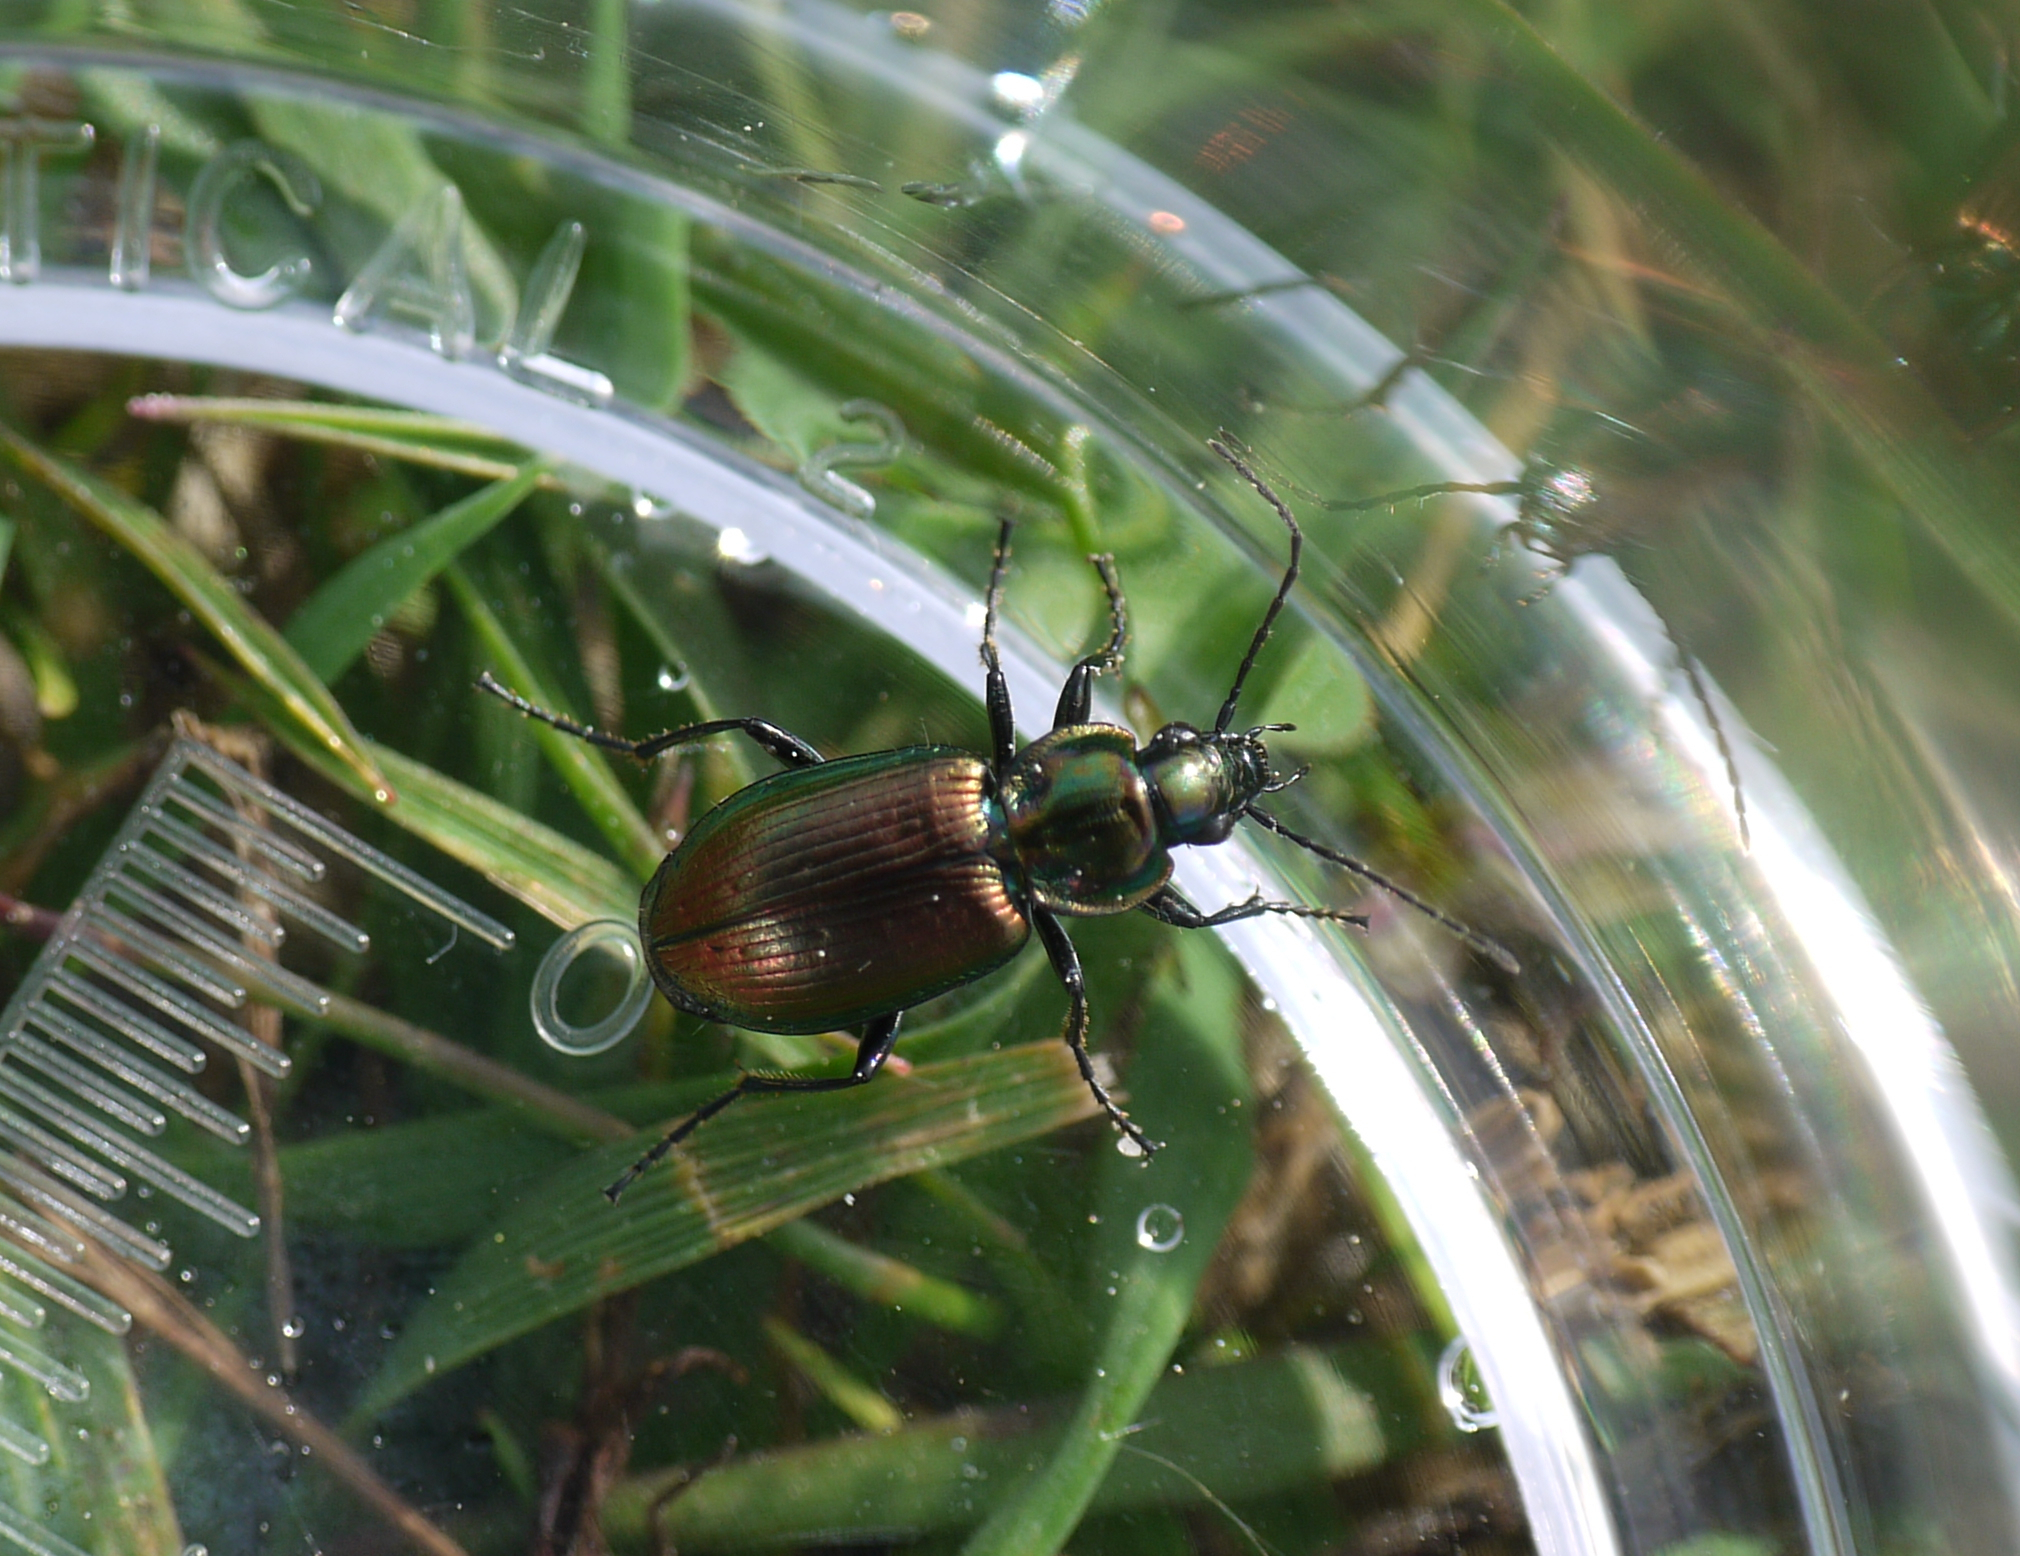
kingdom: Animalia
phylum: Arthropoda
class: Insecta
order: Coleoptera
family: Carabidae
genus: Agonum
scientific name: Agonum sexpunctatum
